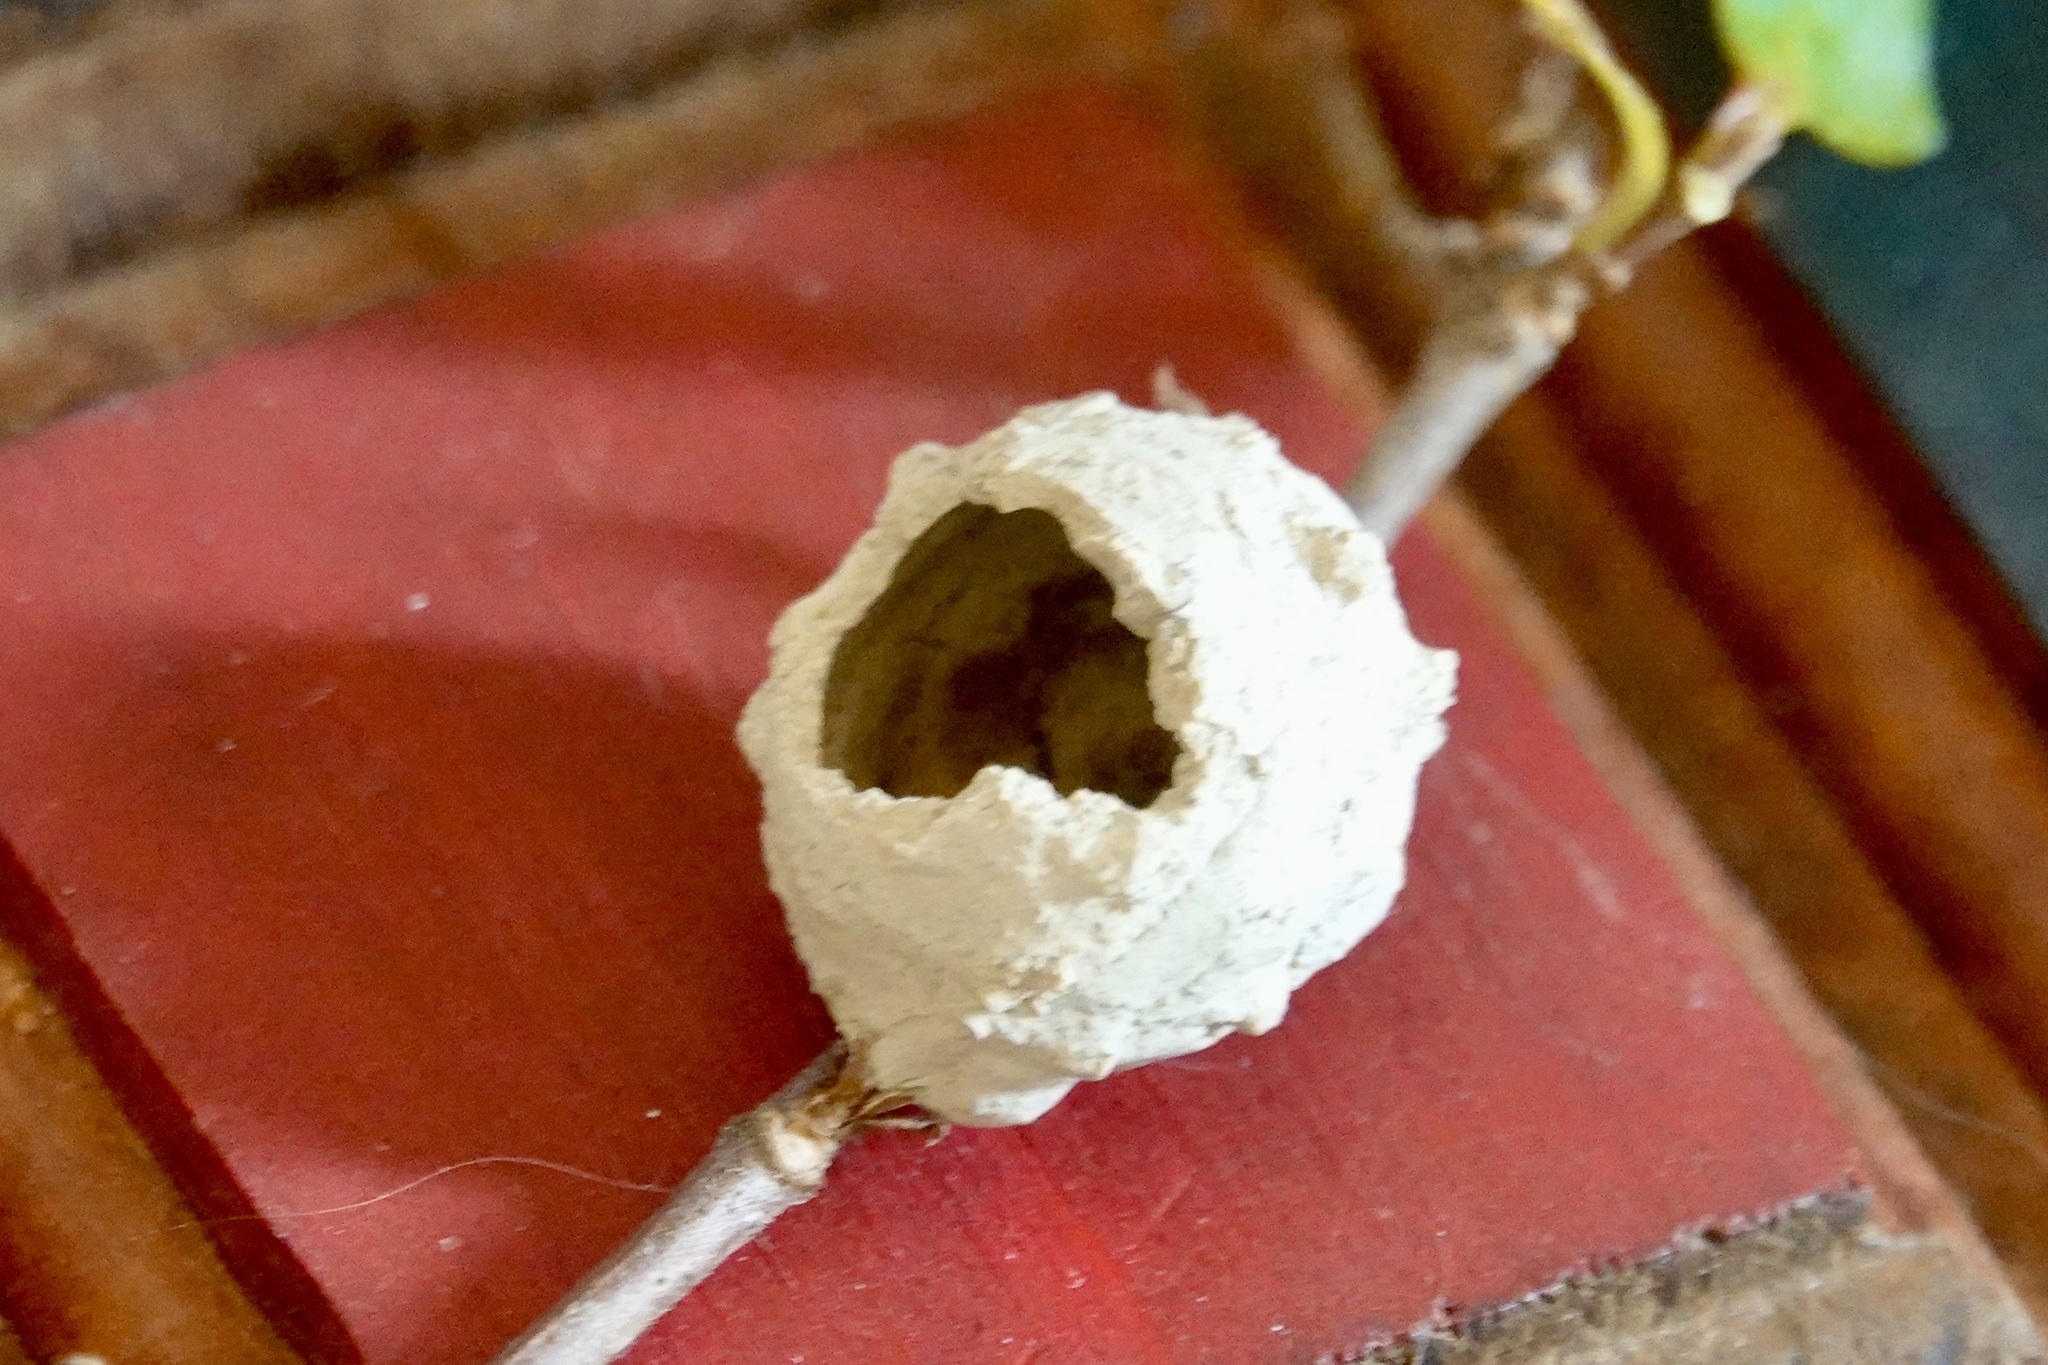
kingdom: Animalia
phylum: Arthropoda
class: Insecta
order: Hymenoptera
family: Vespidae
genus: Eumenes
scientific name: Eumenes
